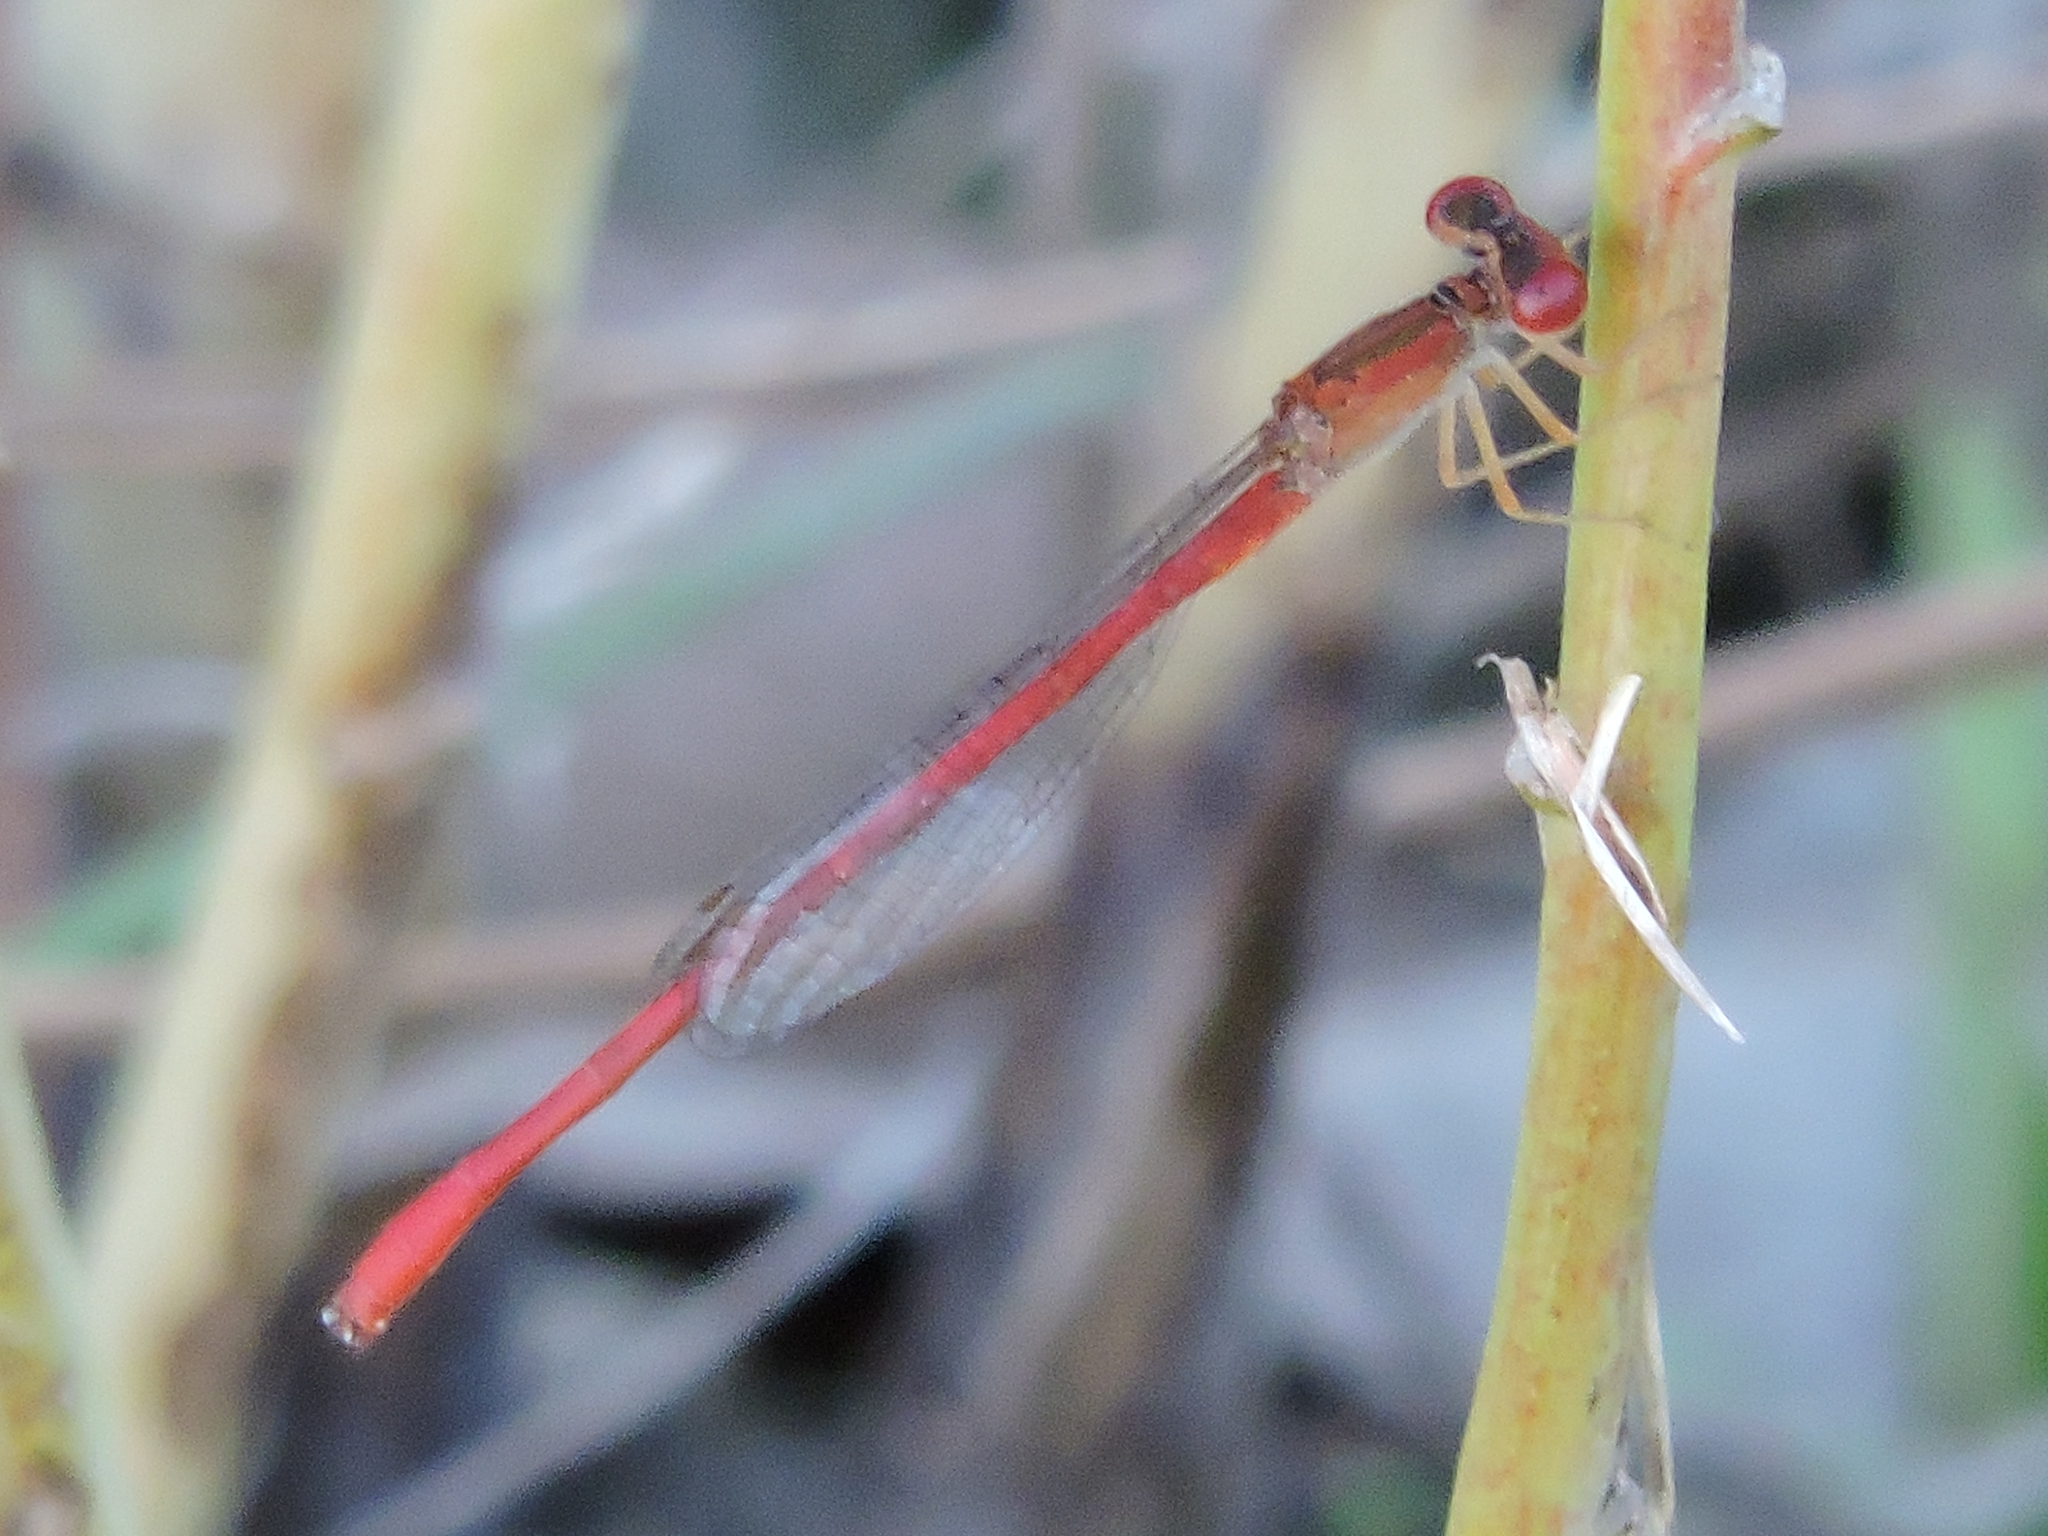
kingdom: Animalia
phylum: Arthropoda
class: Insecta
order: Odonata
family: Coenagrionidae
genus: Telebasis
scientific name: Telebasis salva
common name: Desert firetail
